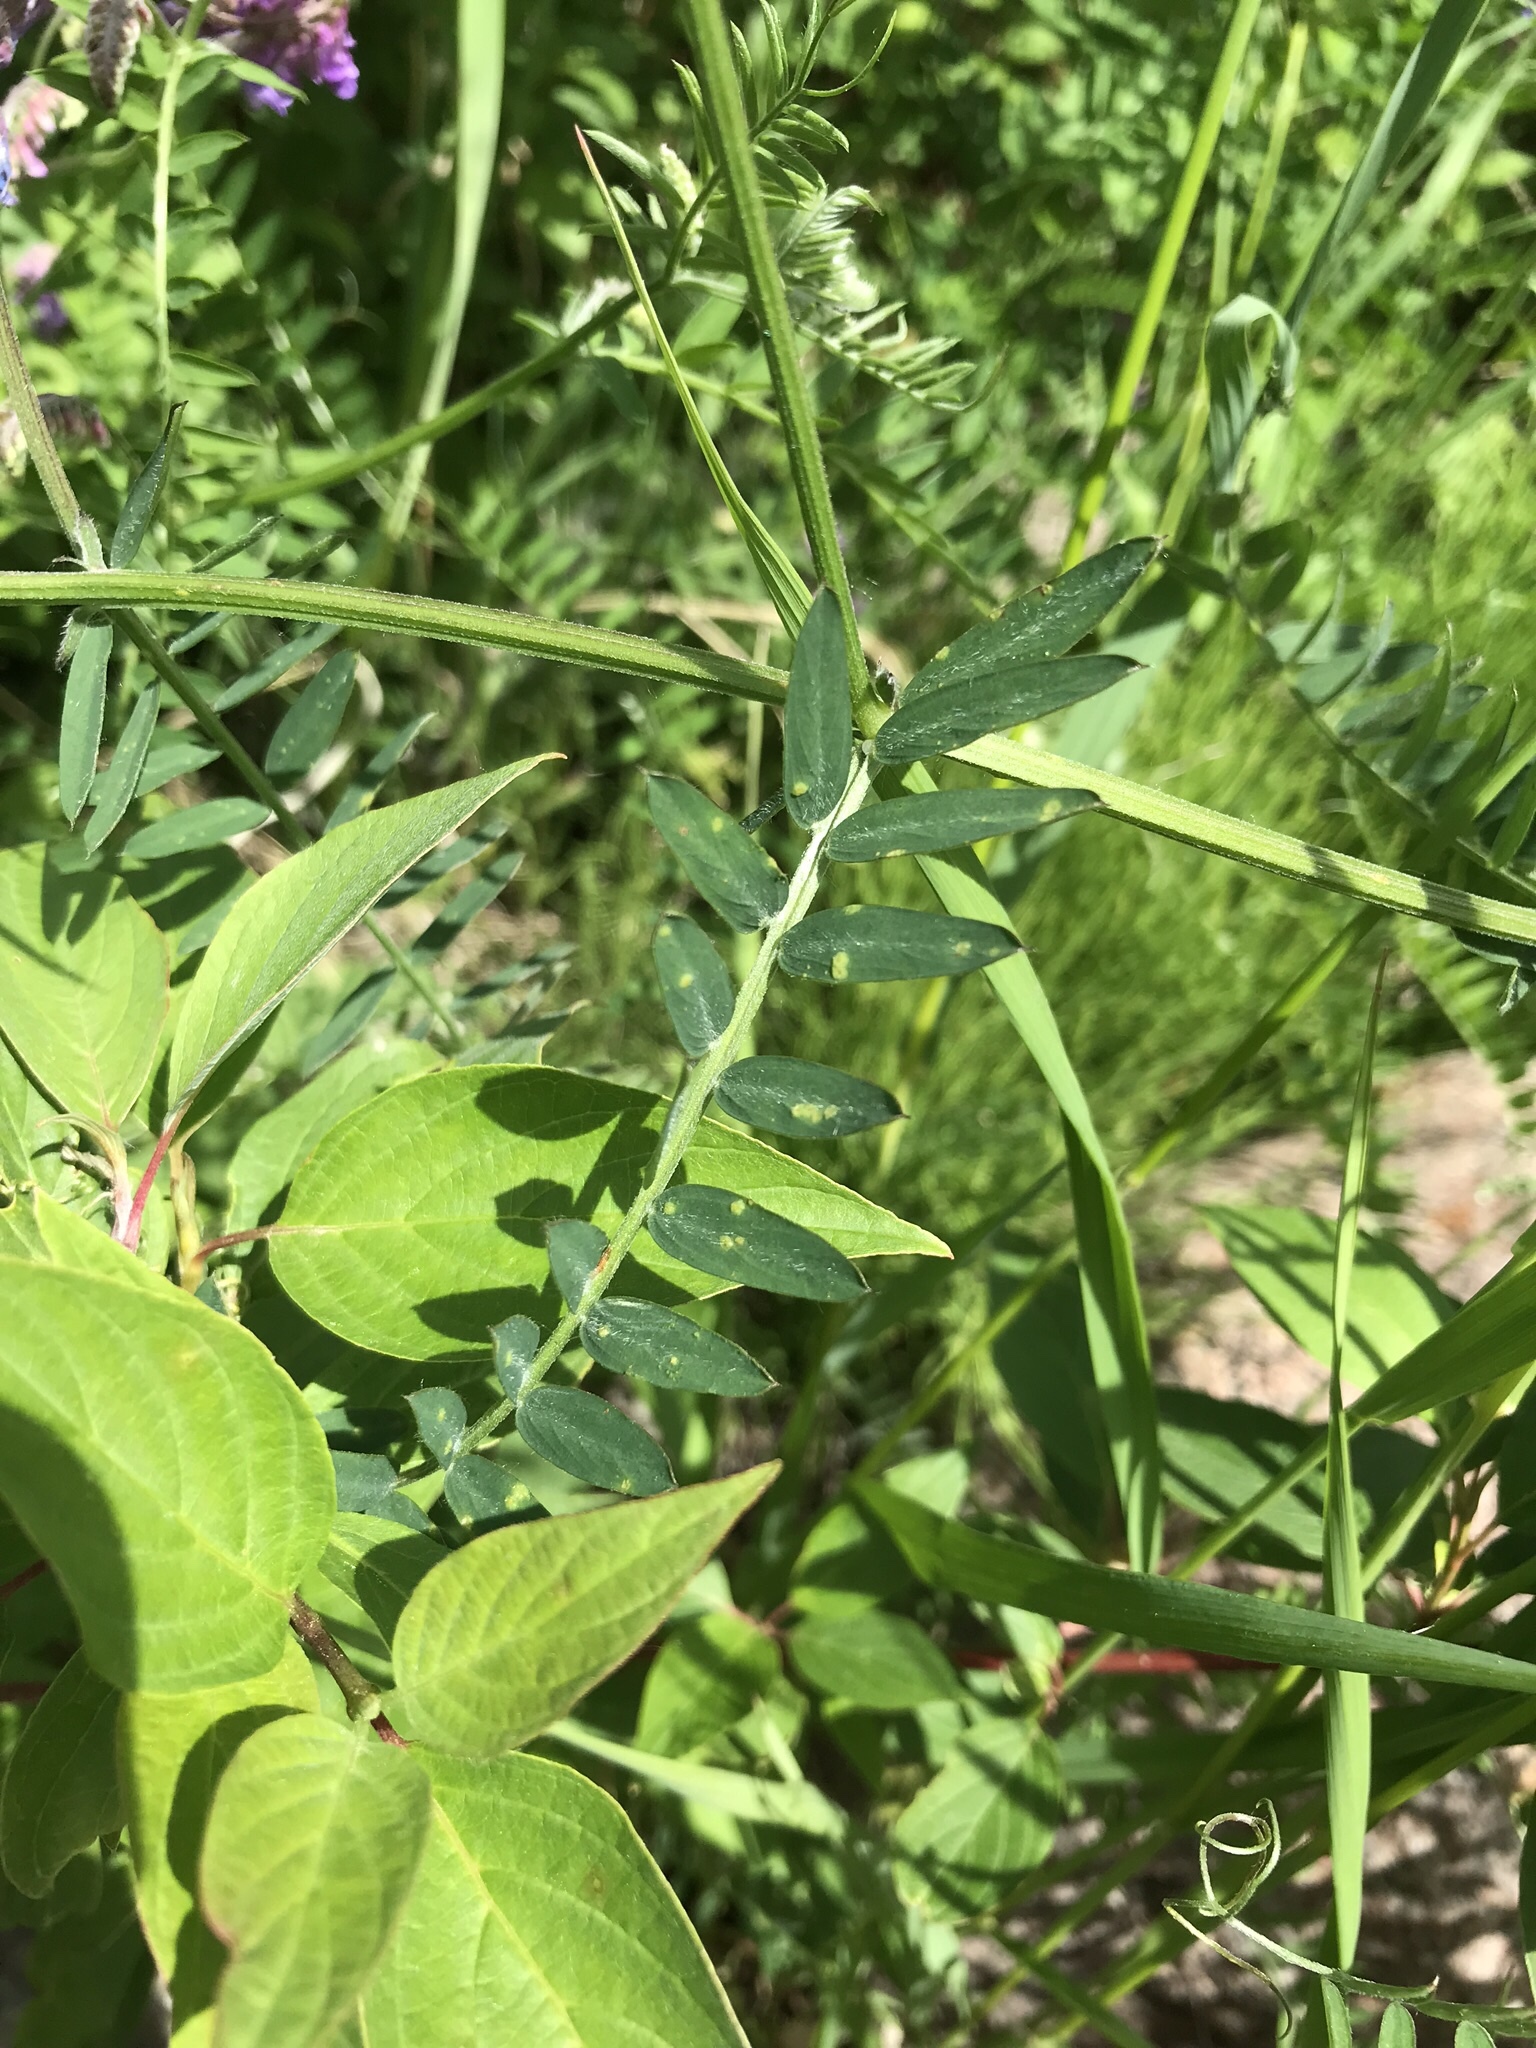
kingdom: Plantae
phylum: Tracheophyta
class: Magnoliopsida
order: Fabales
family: Fabaceae
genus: Vicia
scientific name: Vicia cracca
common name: Bird vetch
